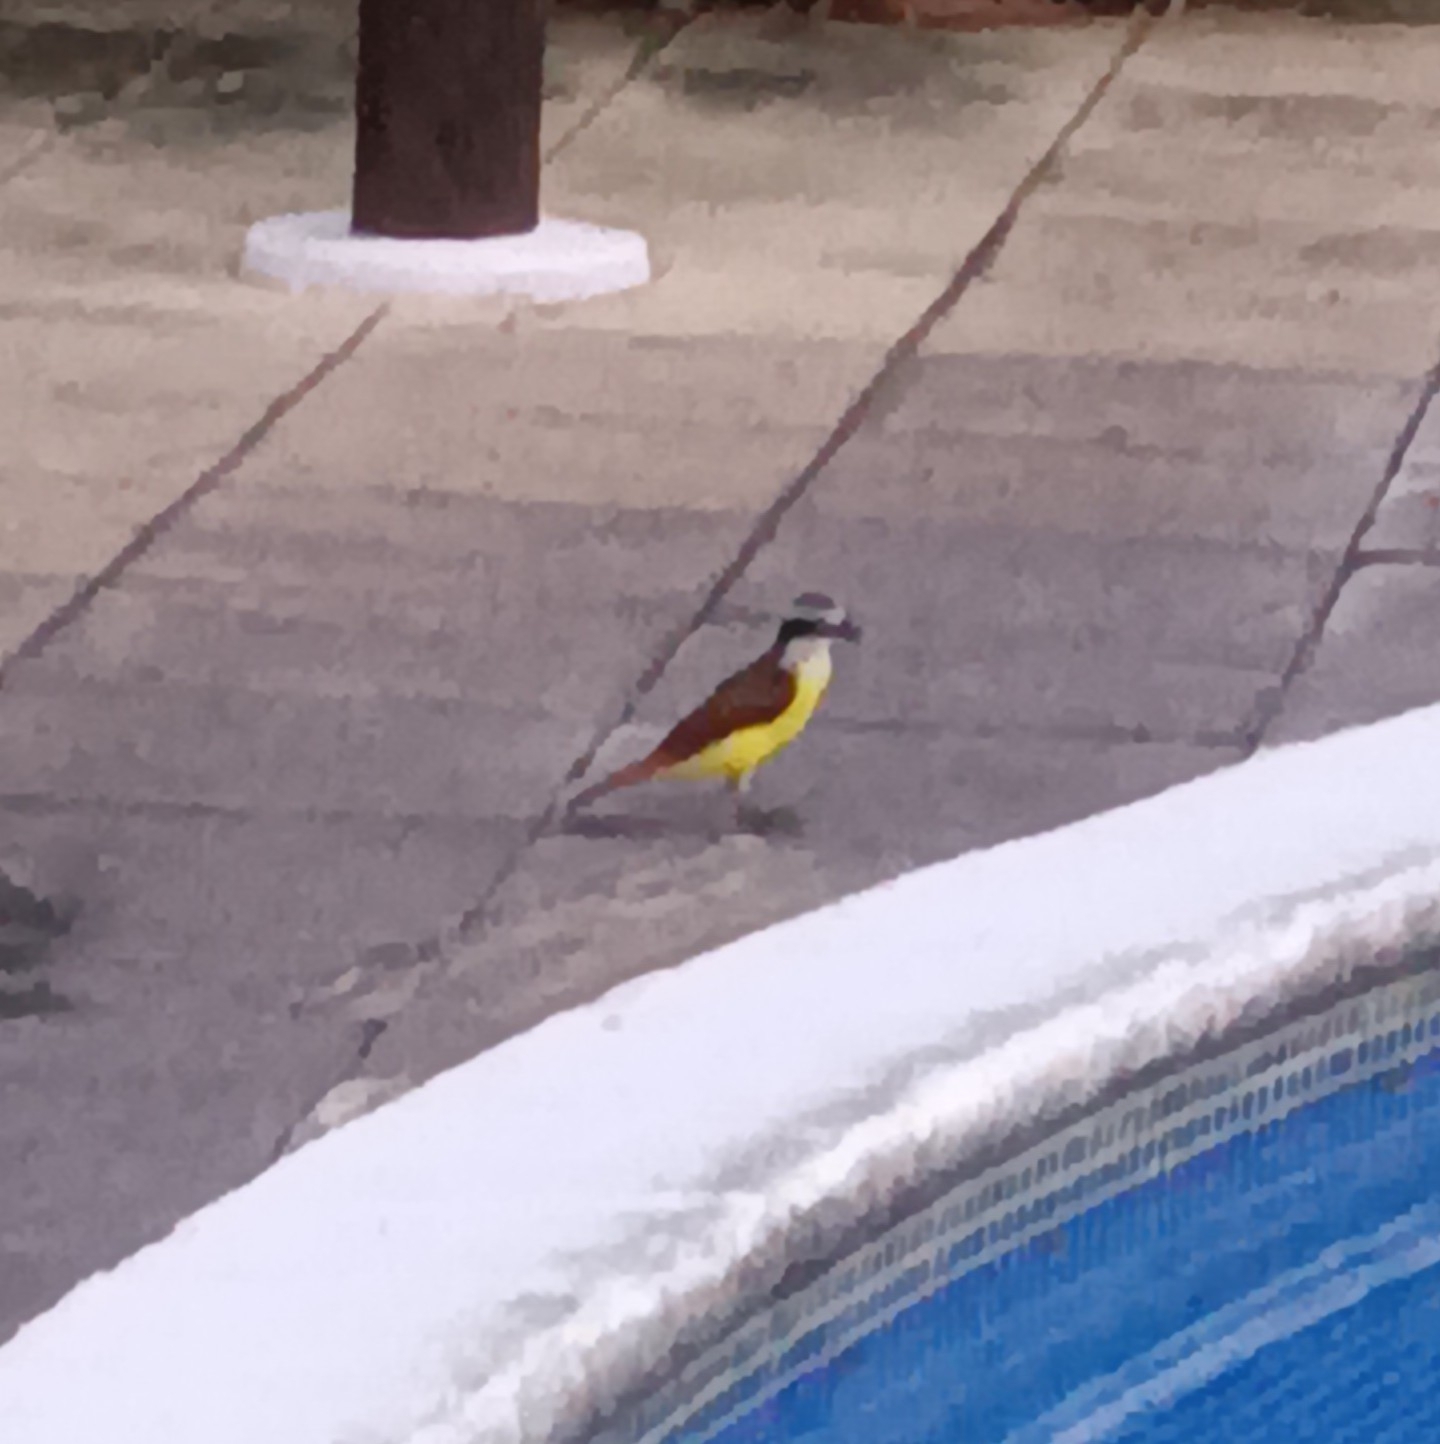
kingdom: Animalia
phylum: Chordata
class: Aves
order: Passeriformes
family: Tyrannidae
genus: Pitangus
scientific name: Pitangus sulphuratus
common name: Great kiskadee
